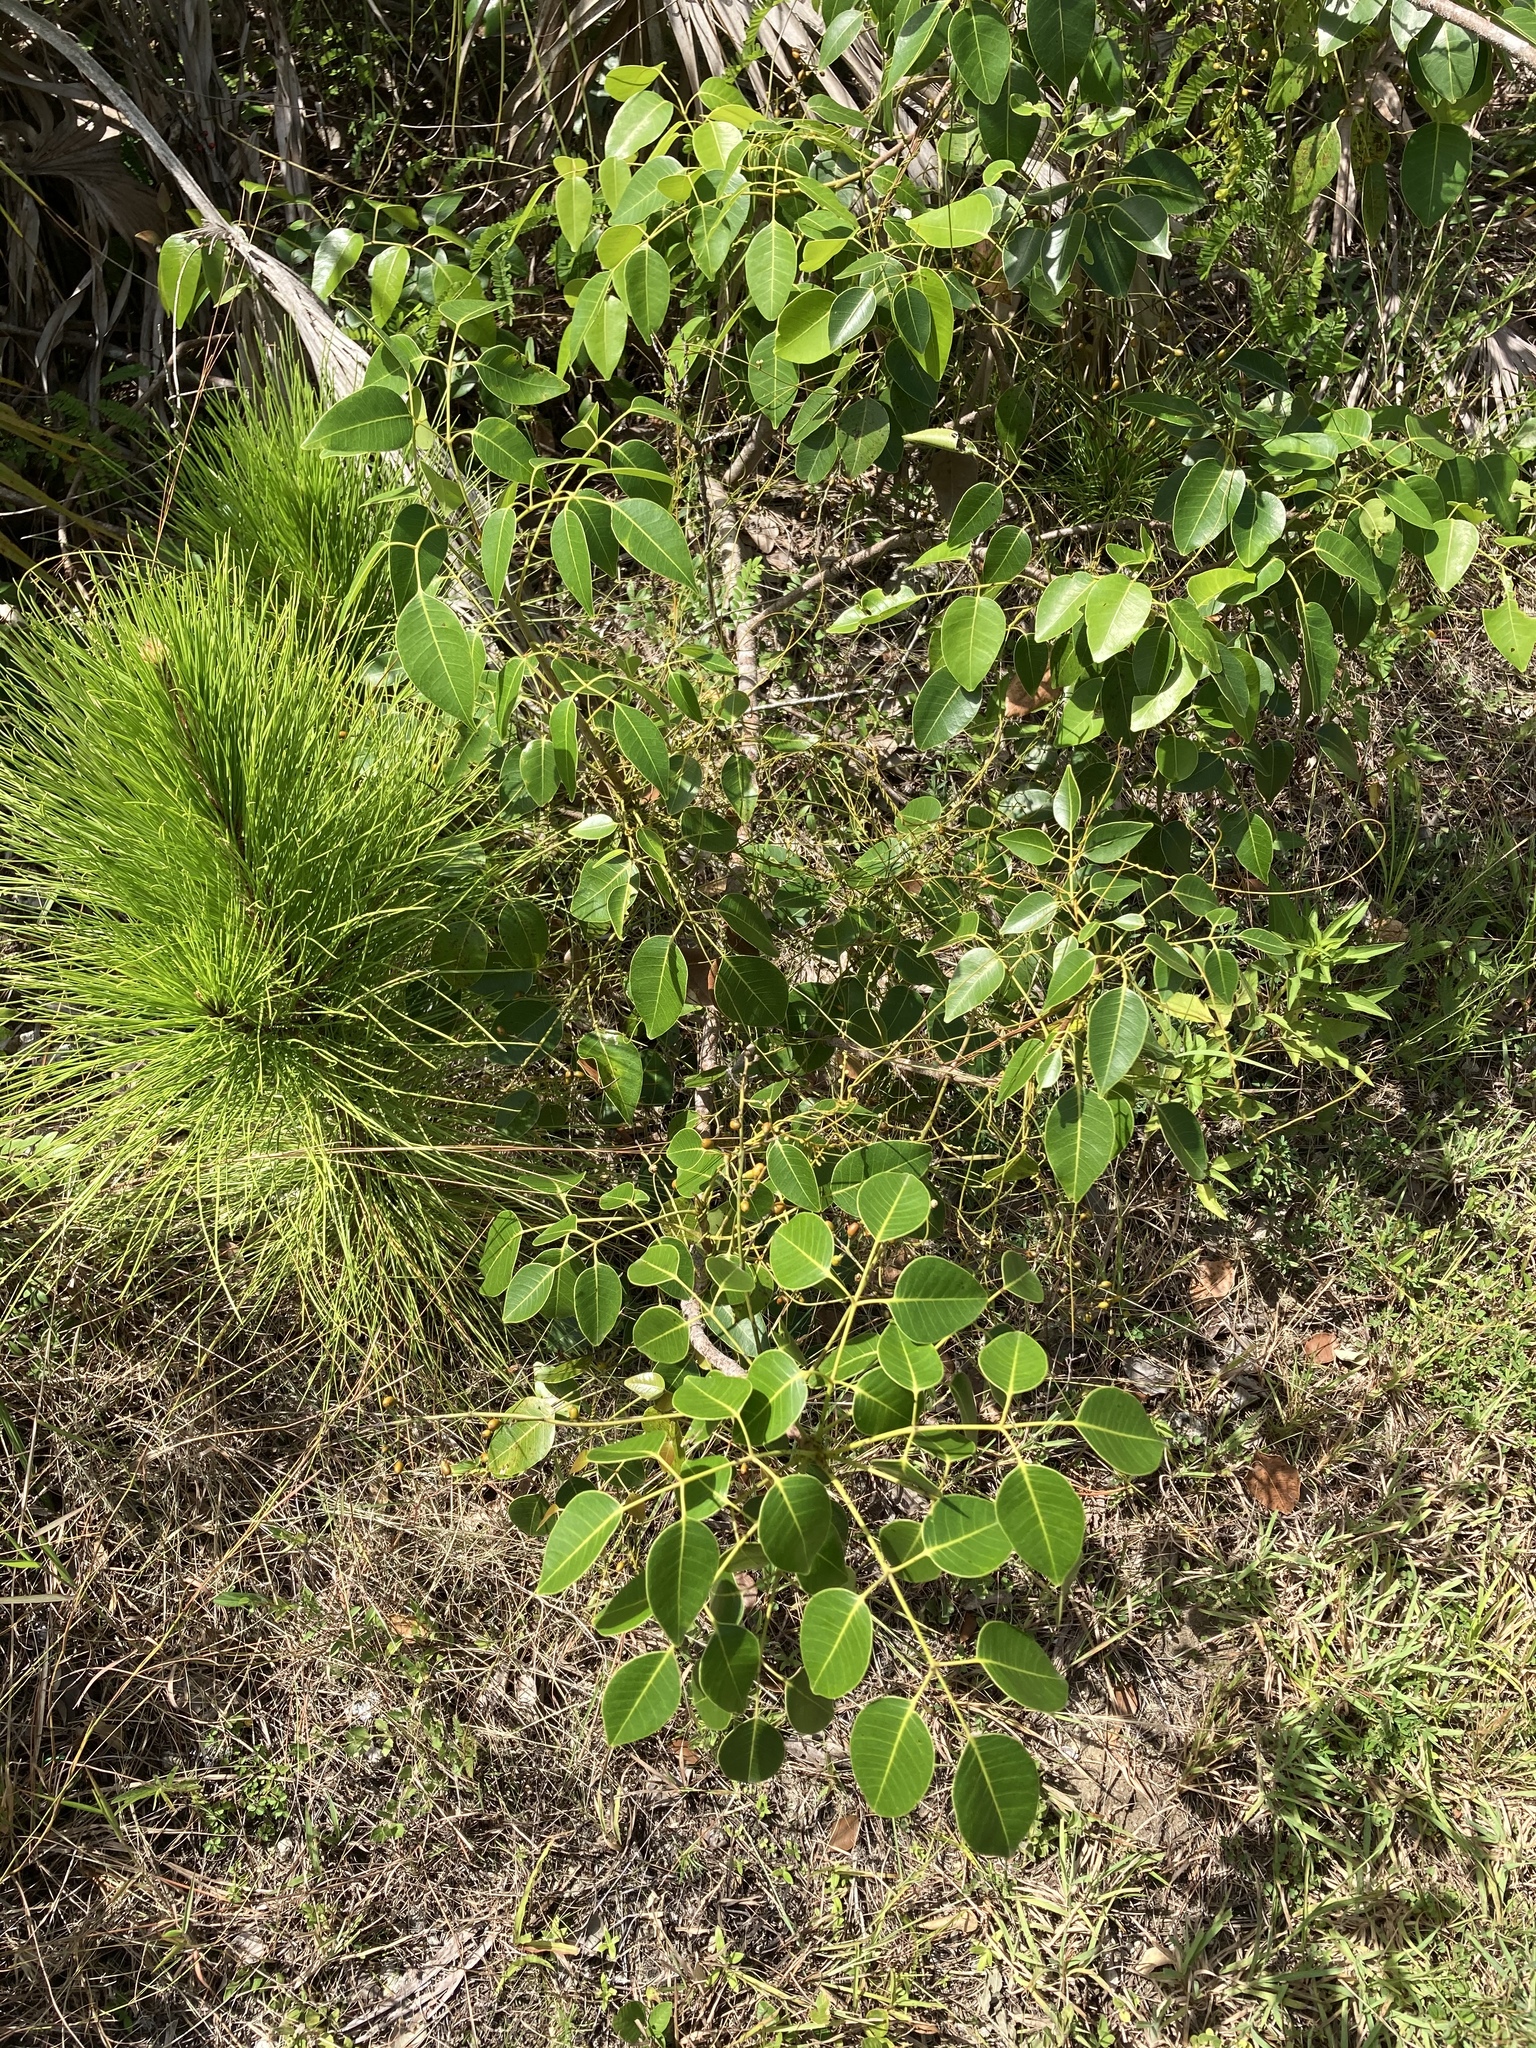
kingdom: Plantae
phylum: Tracheophyta
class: Magnoliopsida
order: Sapindales
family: Anacardiaceae
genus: Metopium
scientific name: Metopium toxiferum
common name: Florida poisontree
